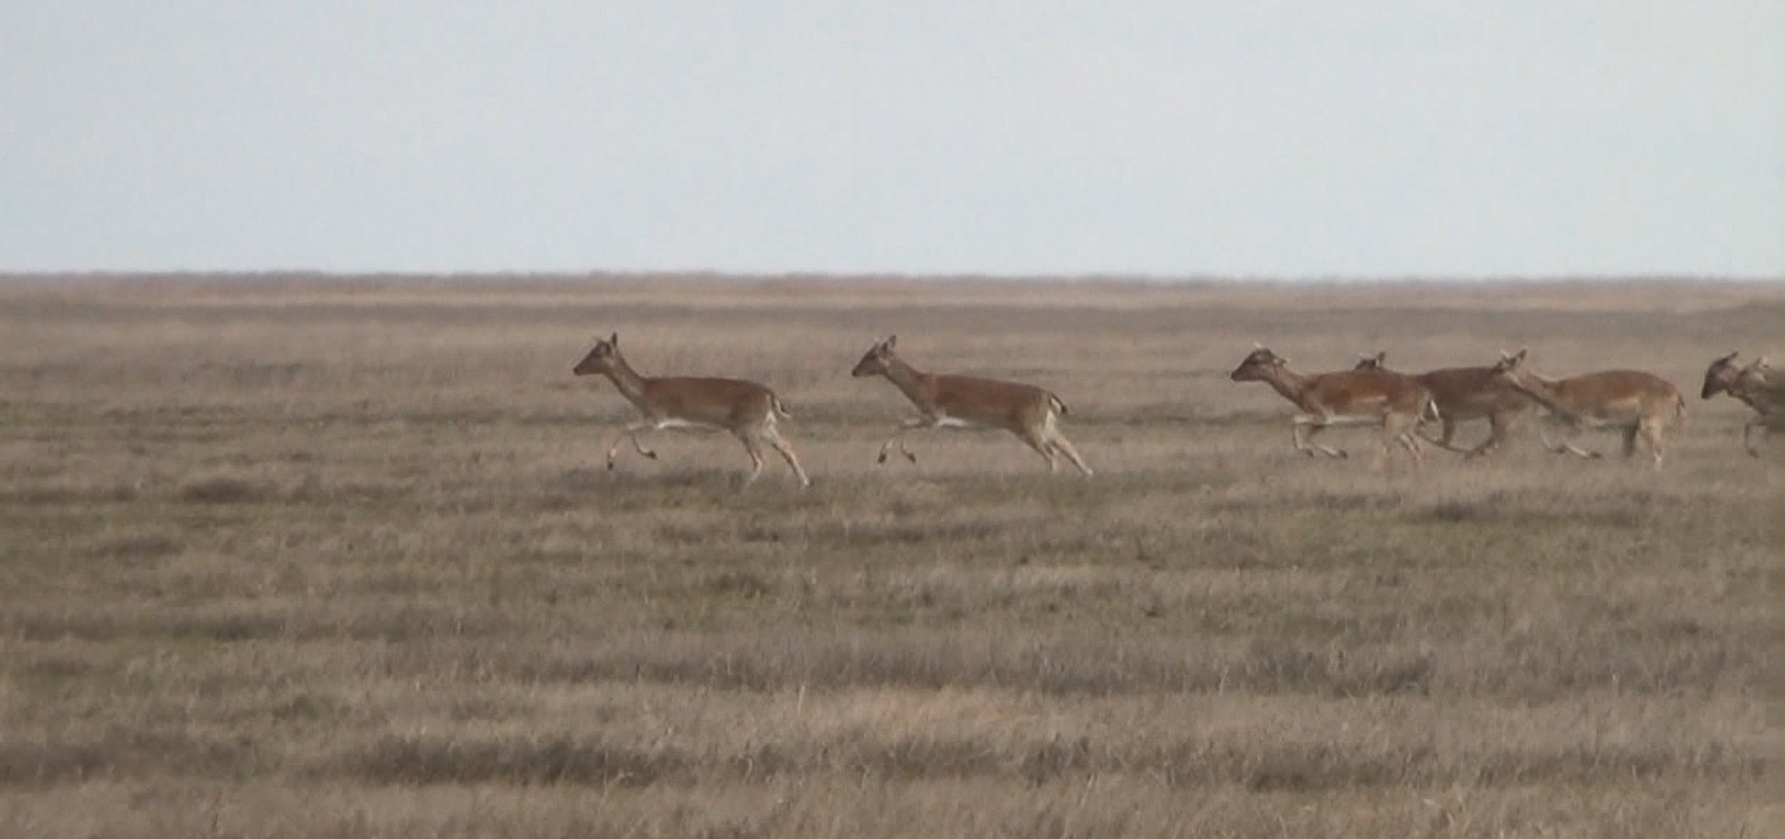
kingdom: Animalia
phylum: Chordata
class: Mammalia
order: Artiodactyla
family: Cervidae
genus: Dama
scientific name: Dama dama
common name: Fallow deer
